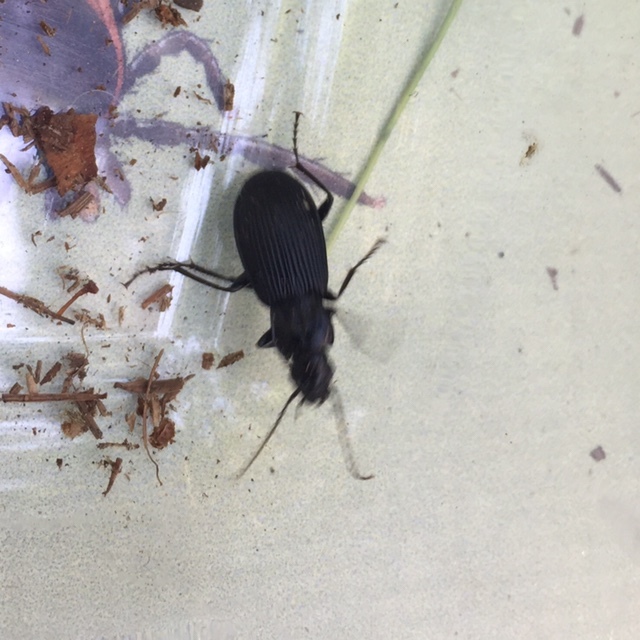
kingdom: Animalia
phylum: Arthropoda
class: Insecta
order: Coleoptera
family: Carabidae
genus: Pterostichus
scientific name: Pterostichus niger
